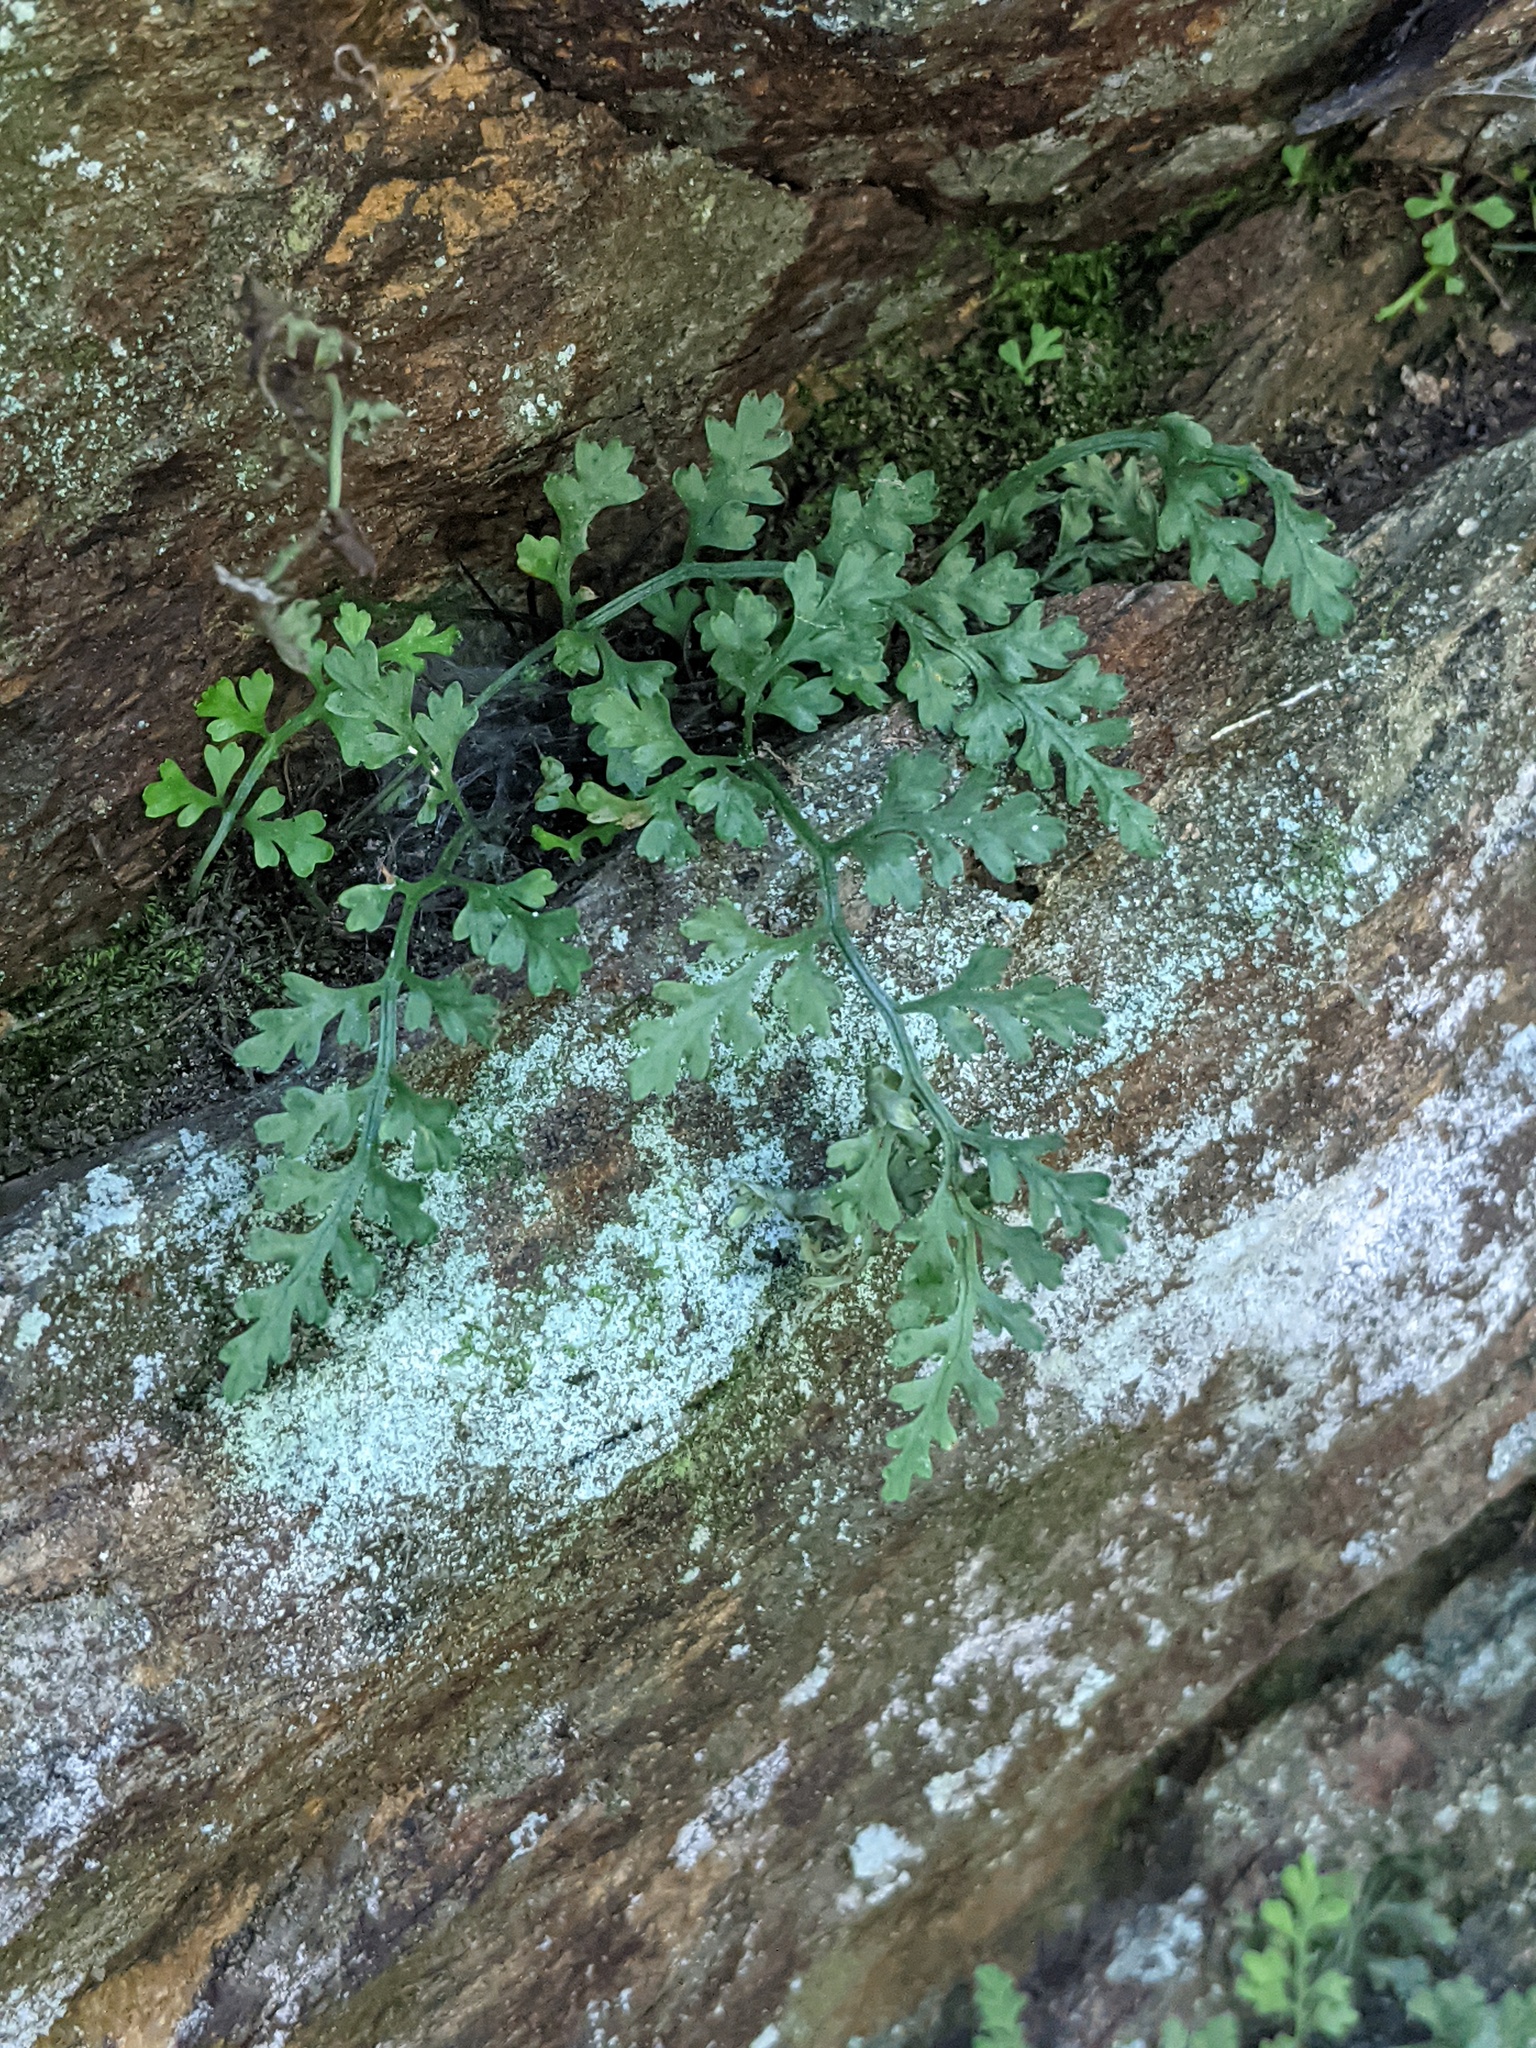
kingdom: Plantae
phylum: Tracheophyta
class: Polypodiopsida
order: Polypodiales
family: Aspleniaceae
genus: Asplenium
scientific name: Asplenium montanum
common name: Mountain spleenwort
